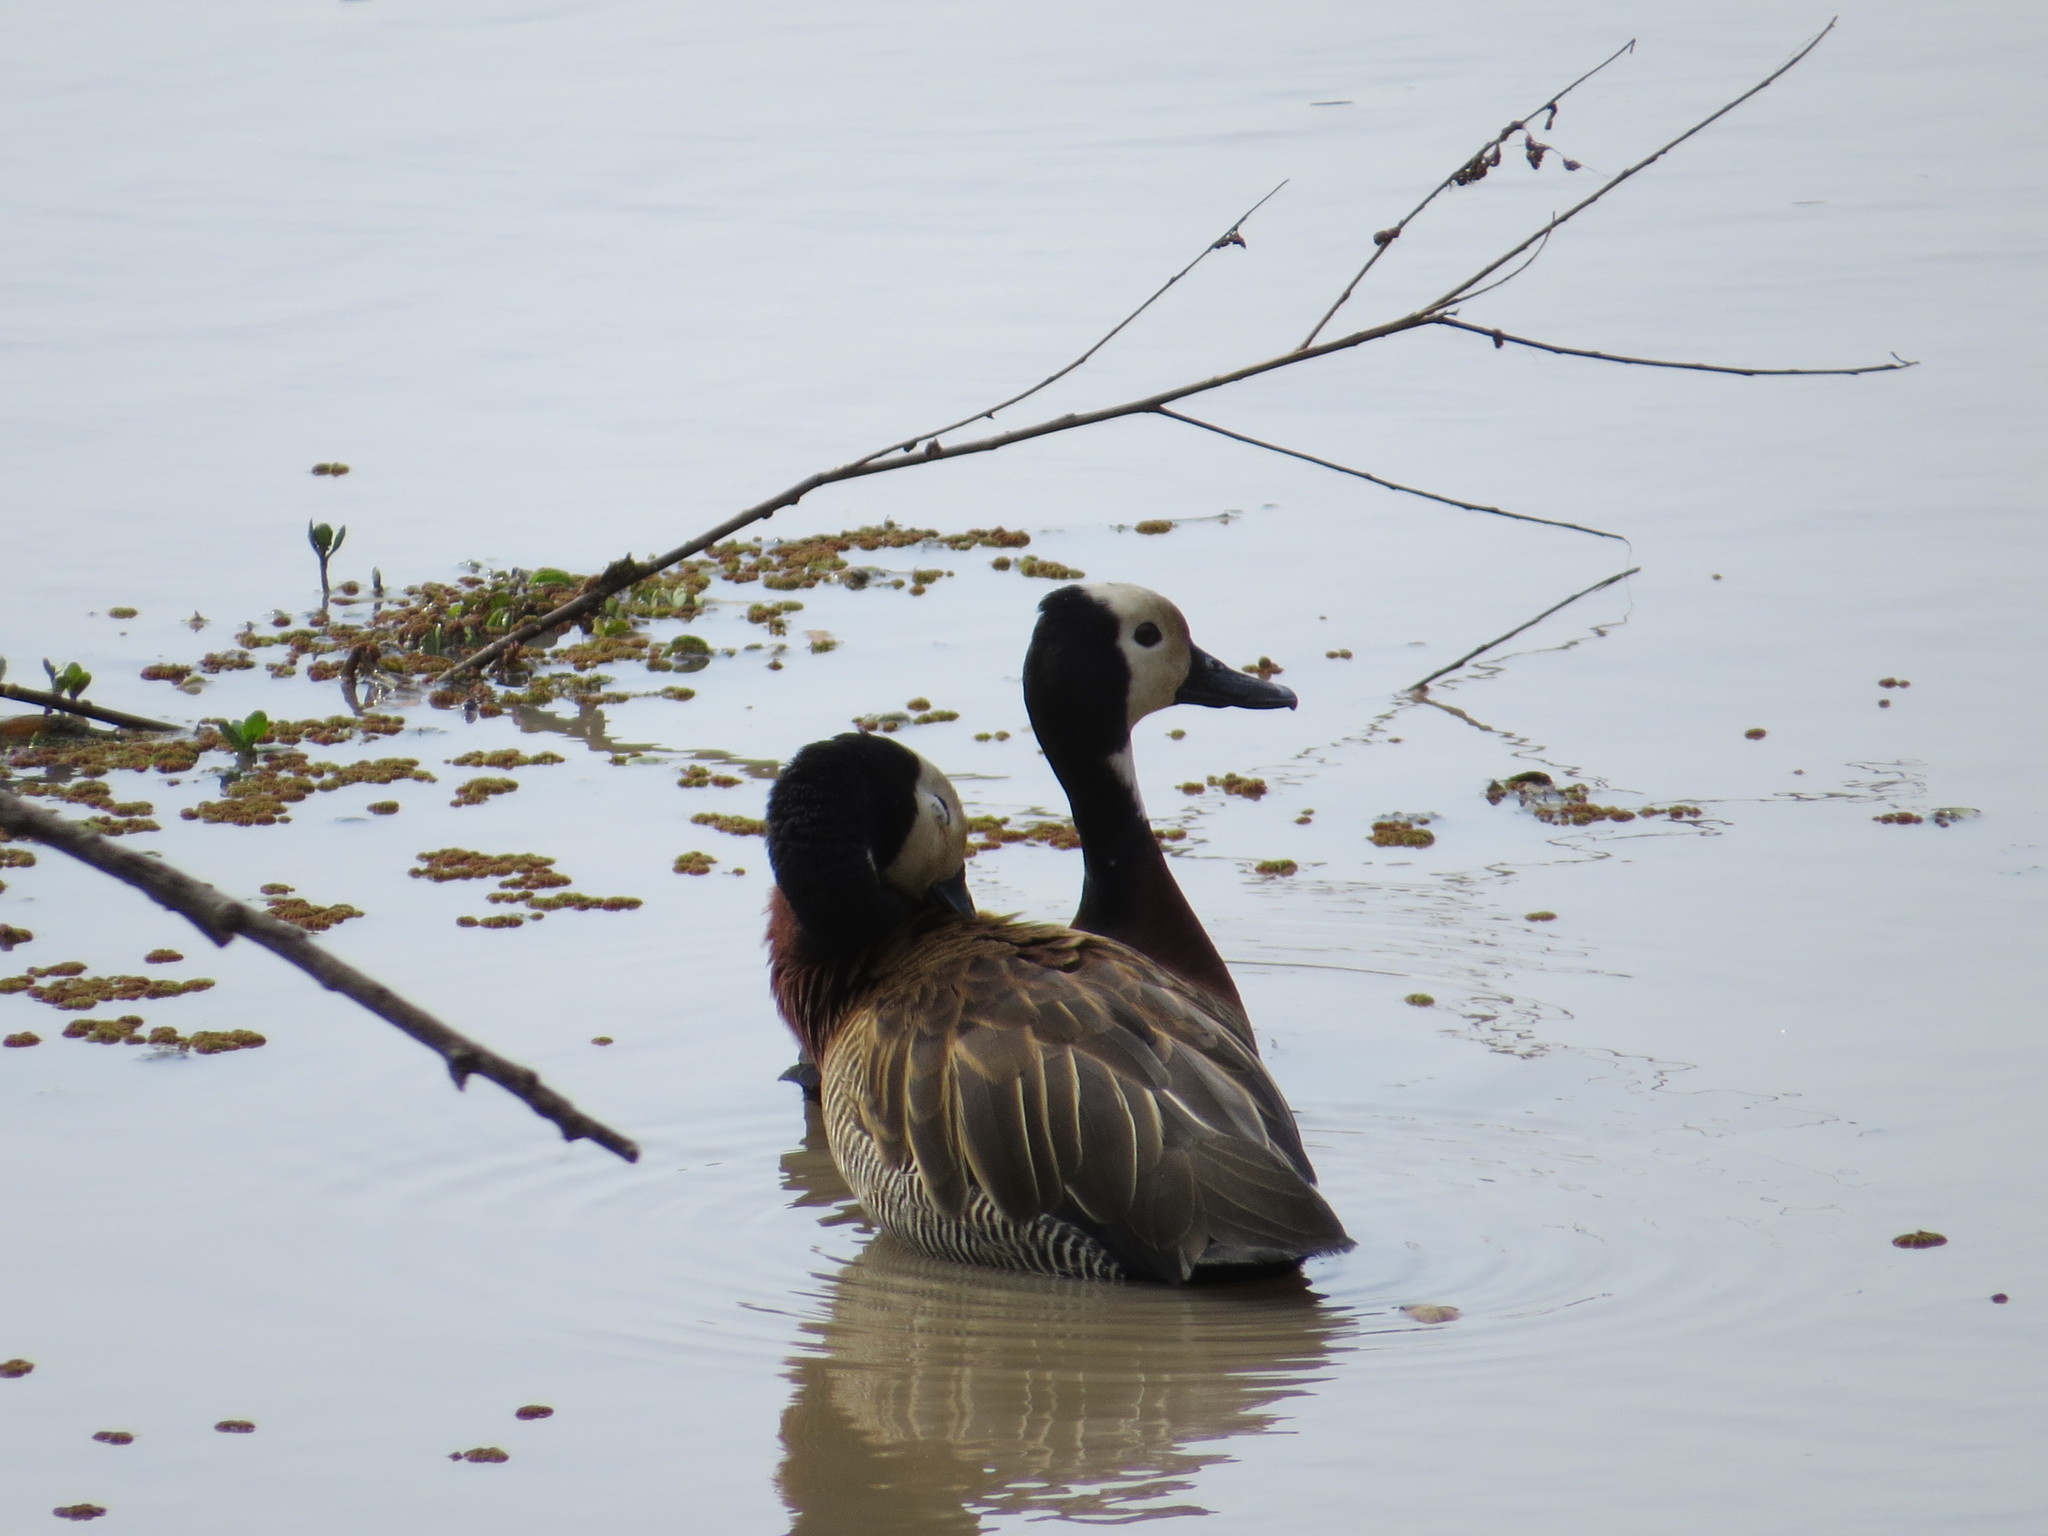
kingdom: Animalia
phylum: Chordata
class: Aves
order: Anseriformes
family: Anatidae
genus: Dendrocygna
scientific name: Dendrocygna viduata
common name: White-faced whistling duck
